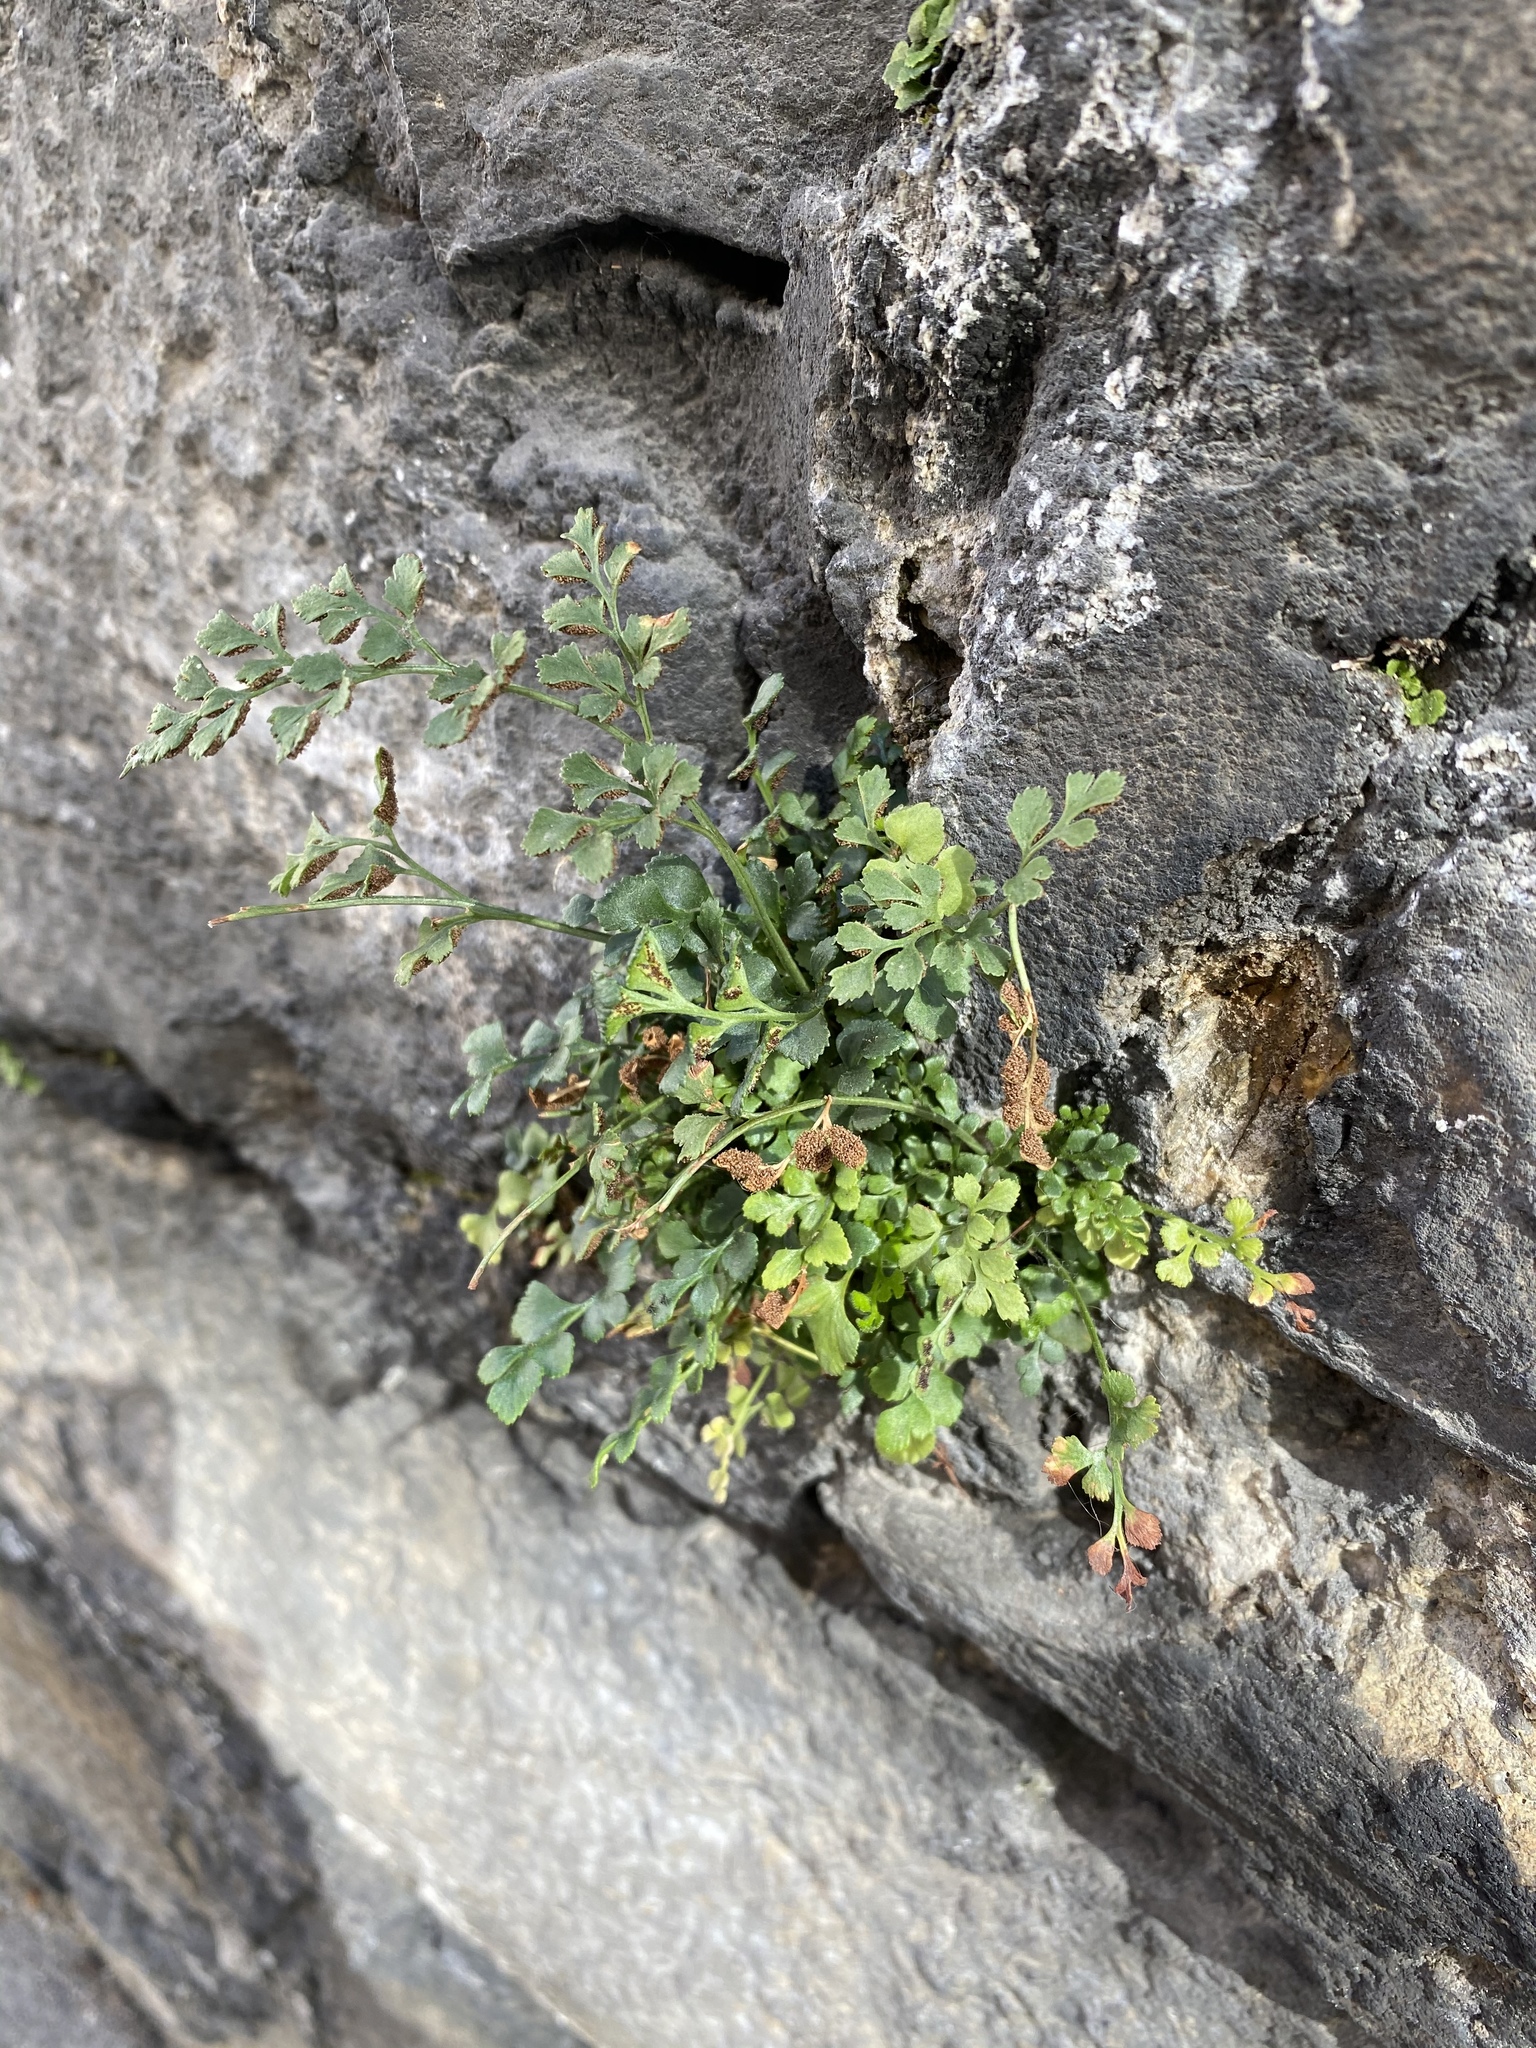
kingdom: Plantae
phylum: Tracheophyta
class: Polypodiopsida
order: Polypodiales
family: Aspleniaceae
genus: Asplenium
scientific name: Asplenium ruta-muraria
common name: Wall-rue
